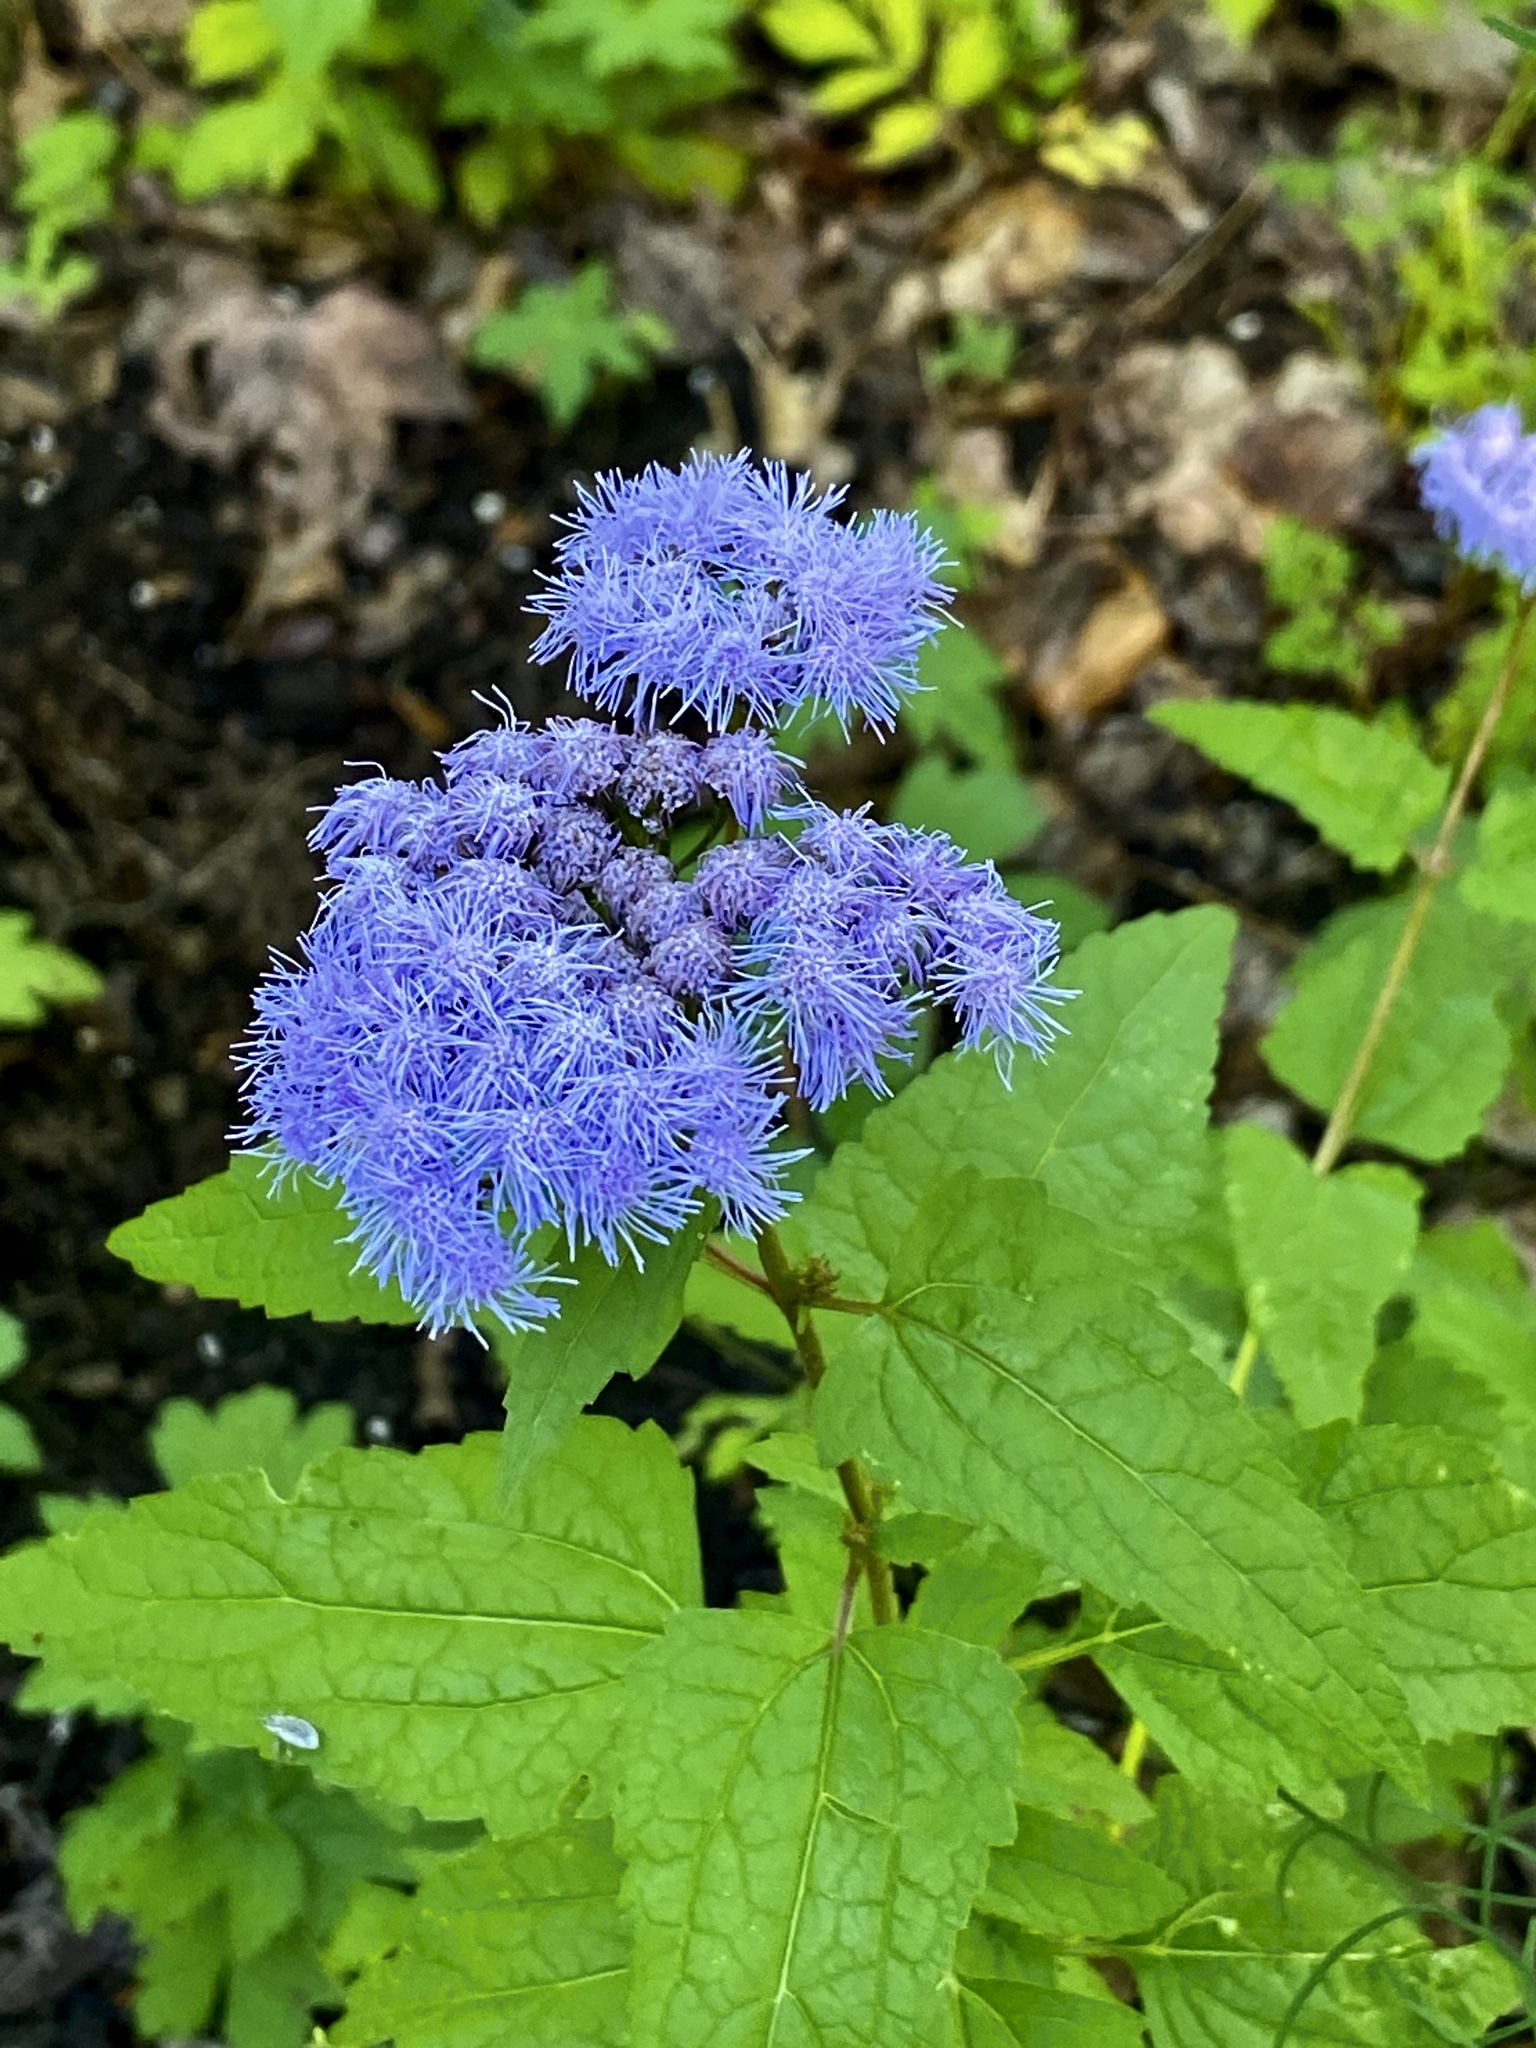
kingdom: Plantae
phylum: Tracheophyta
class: Magnoliopsida
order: Asterales
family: Asteraceae
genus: Conoclinium
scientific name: Conoclinium coelestinum
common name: Blue mistflower
